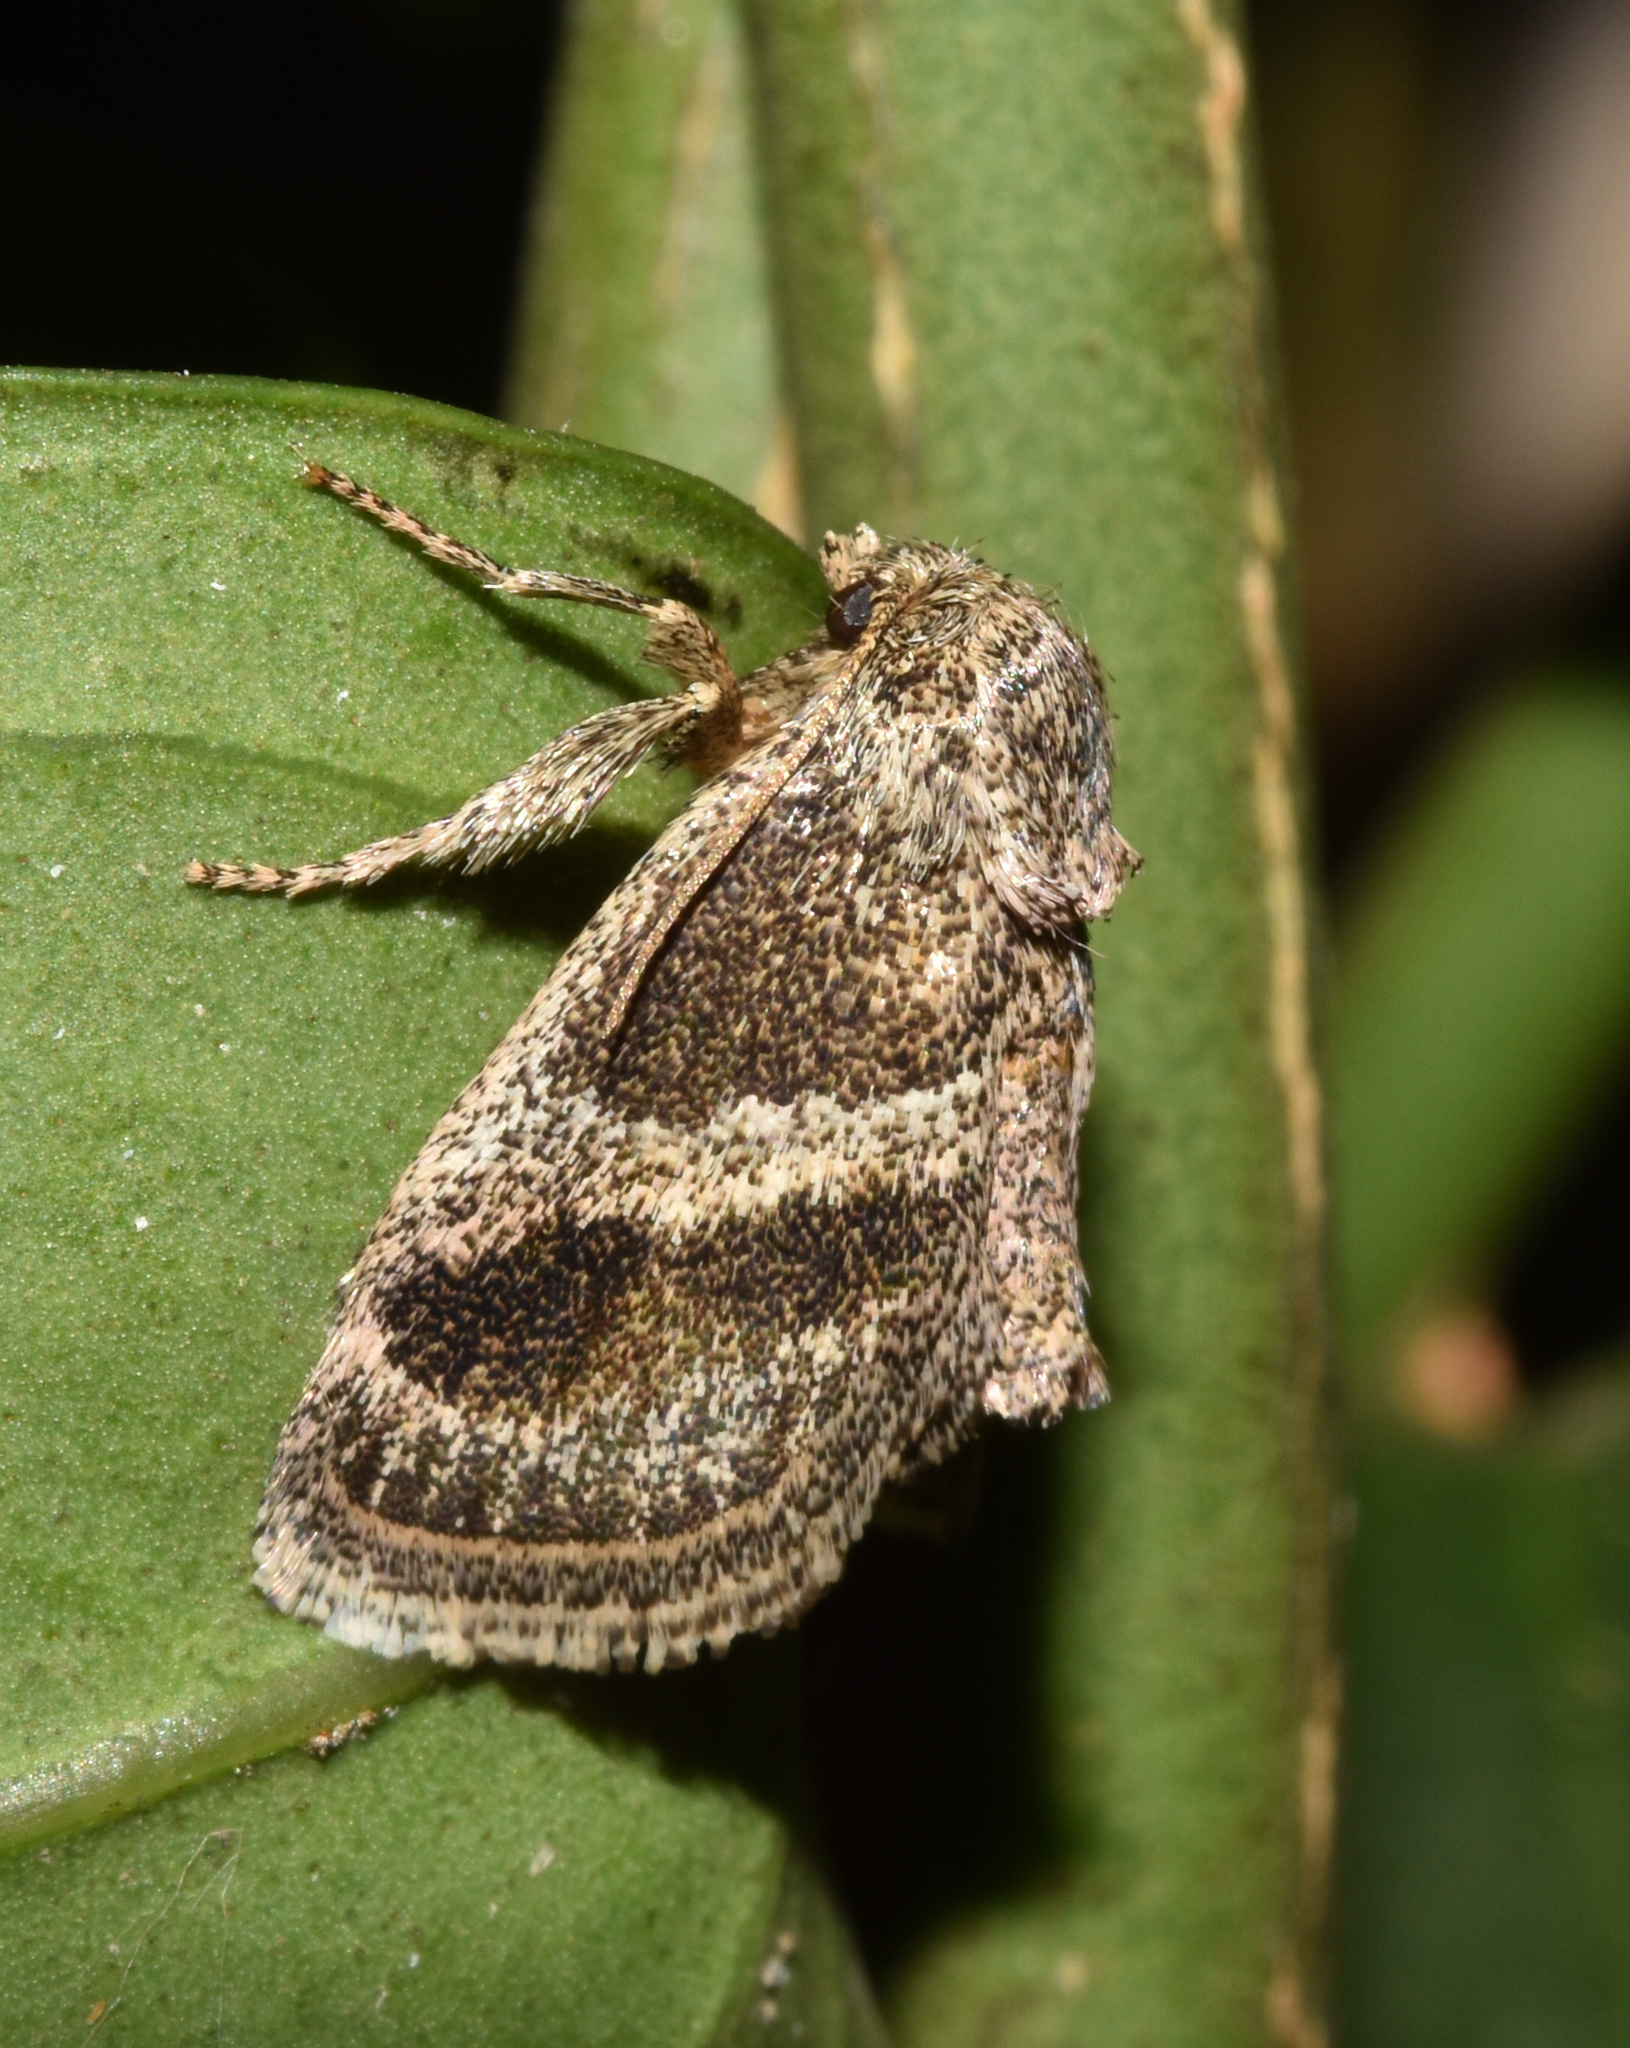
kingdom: Animalia
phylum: Arthropoda
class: Insecta
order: Lepidoptera
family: Limacodidae
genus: Halseyia
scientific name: Halseyia rectifascia
